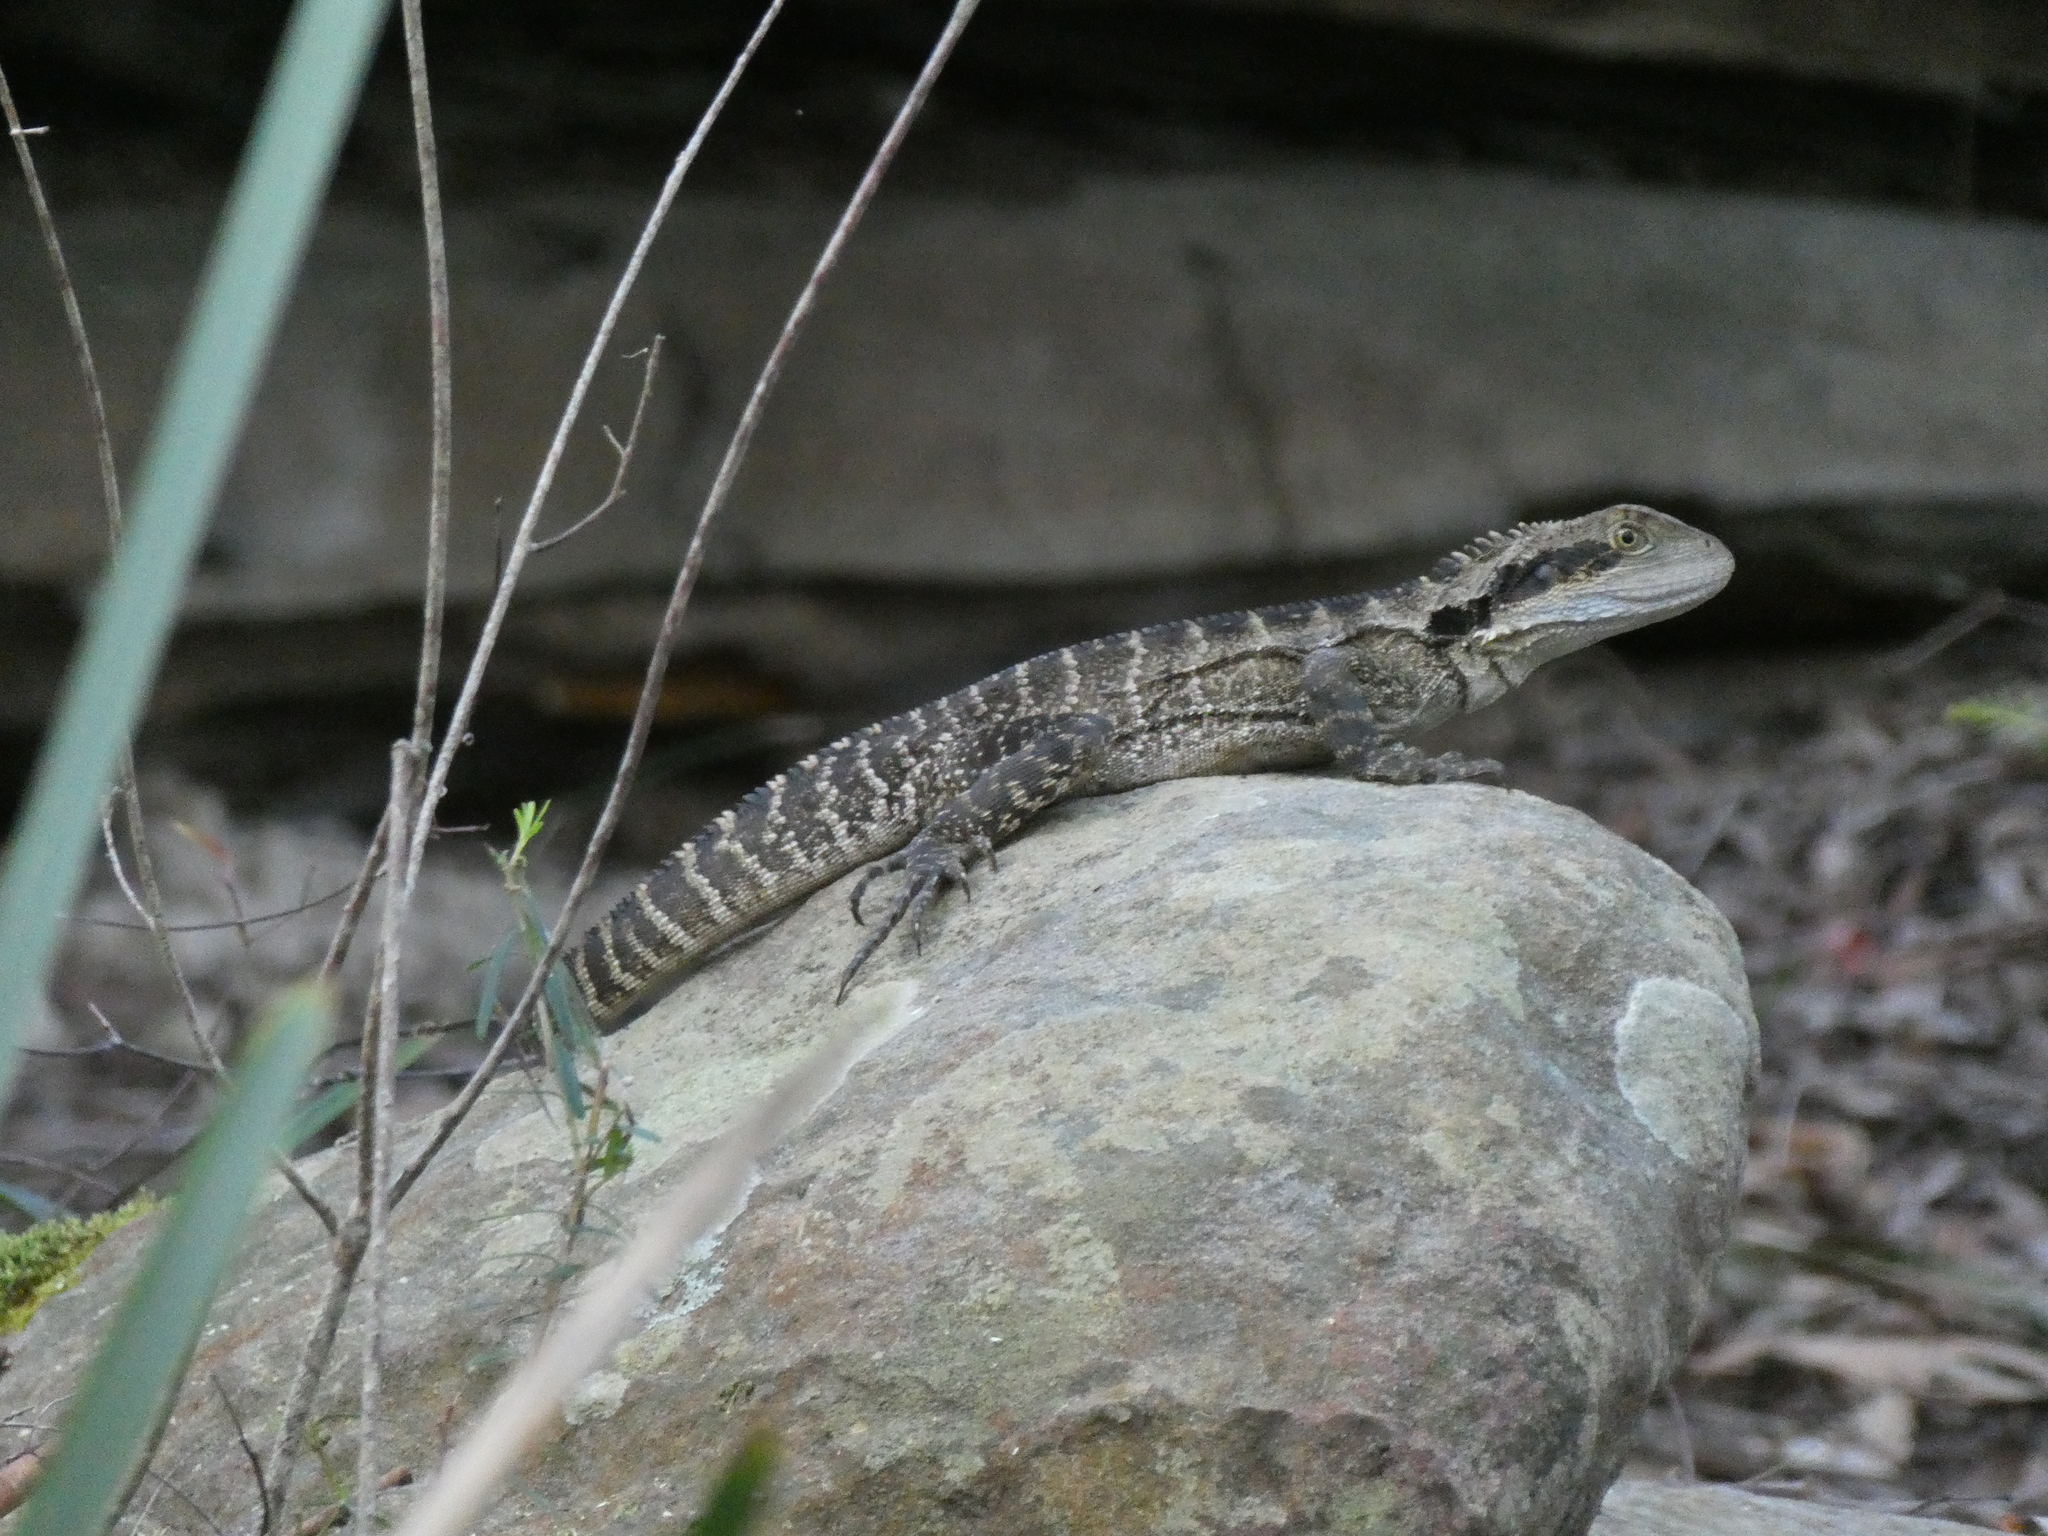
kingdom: Animalia
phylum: Chordata
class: Squamata
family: Agamidae
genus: Intellagama
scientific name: Intellagama lesueurii
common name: Eastern water dragon
